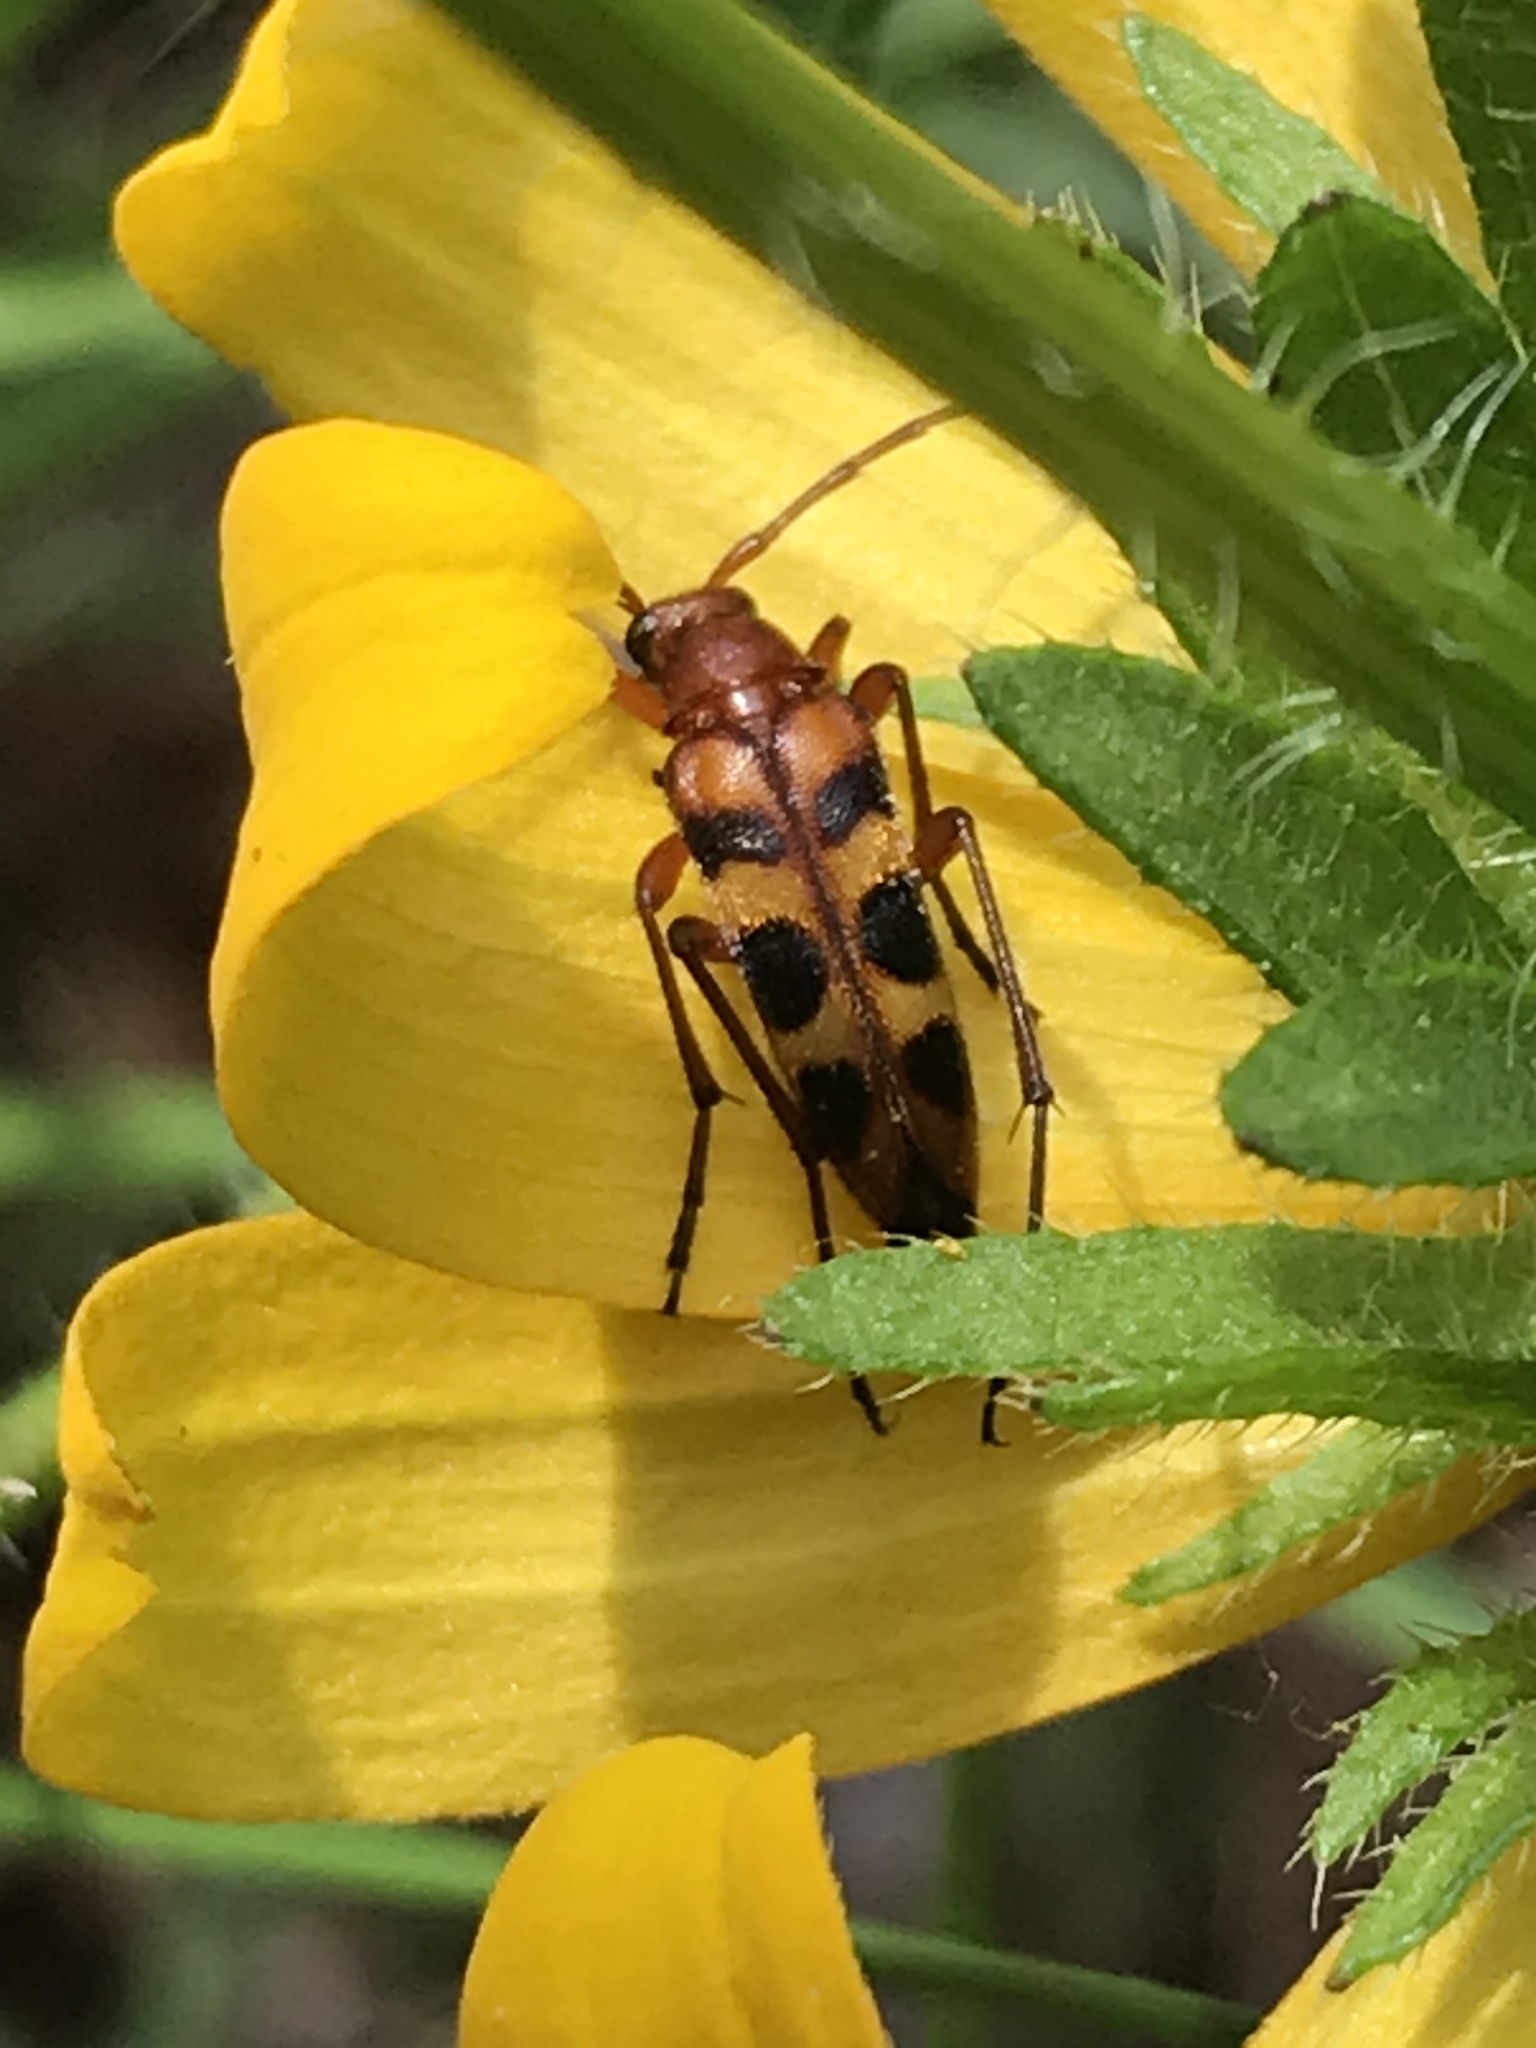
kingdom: Animalia
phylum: Arthropoda
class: Insecta
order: Coleoptera
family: Cerambycidae
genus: Strangalia
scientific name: Strangalia sexnotata
